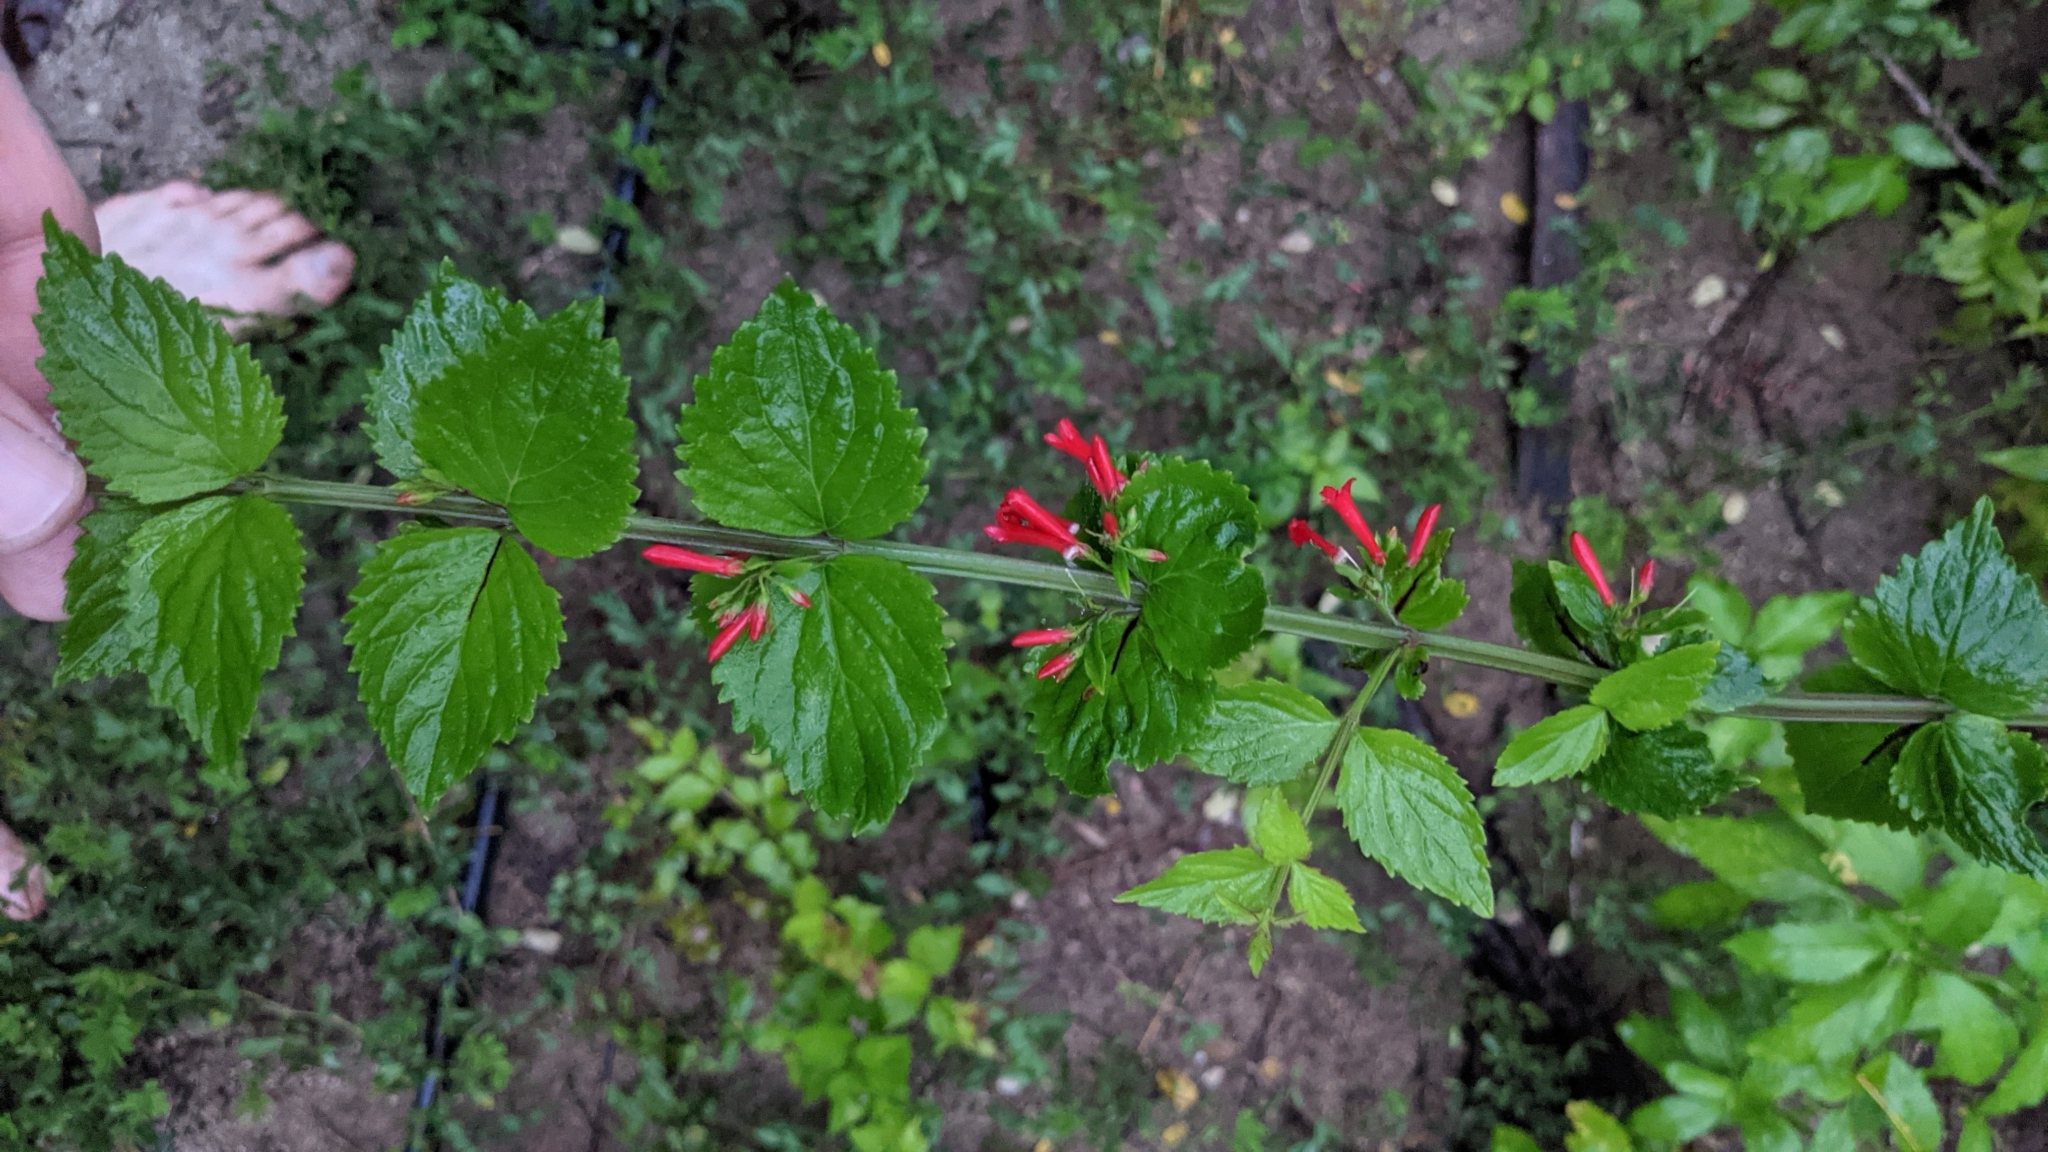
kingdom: Plantae
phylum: Tracheophyta
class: Magnoliopsida
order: Lamiales
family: Plantaginaceae
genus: Russelia
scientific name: Russelia sarmentosa
